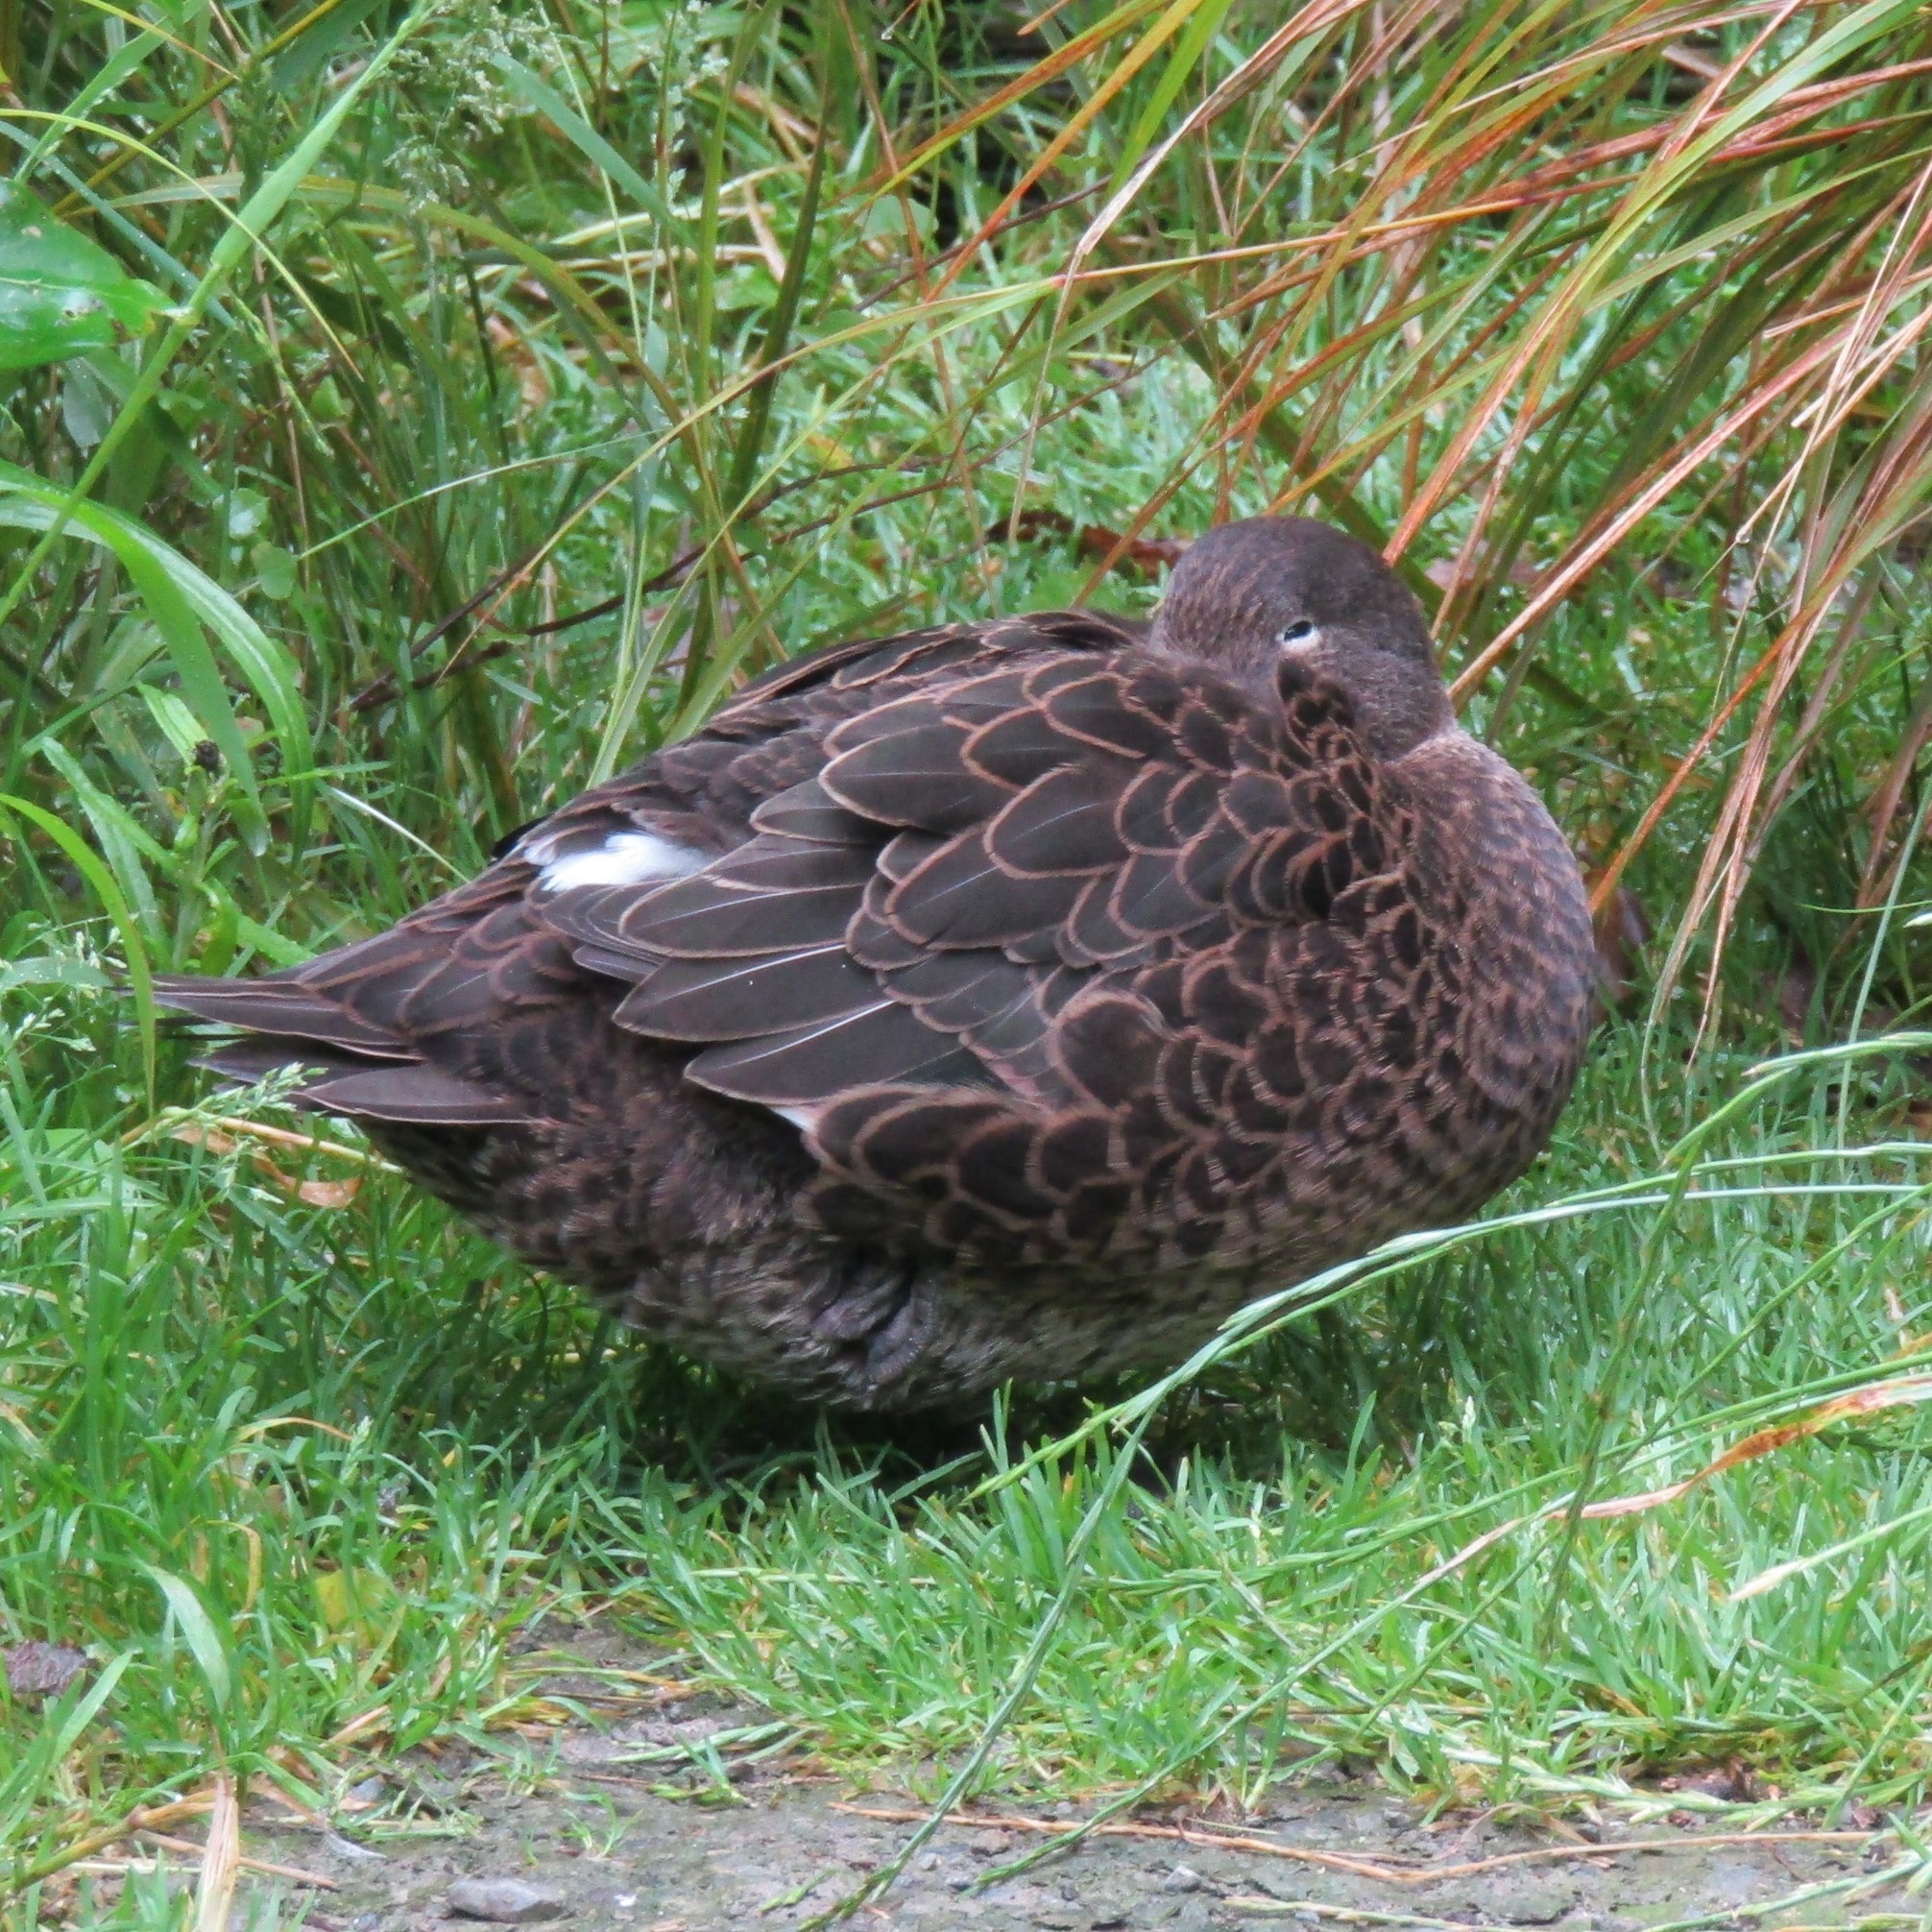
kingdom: Animalia
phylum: Chordata
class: Aves
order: Anseriformes
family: Anatidae
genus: Anas
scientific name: Anas chlorotis
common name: Brown teal
